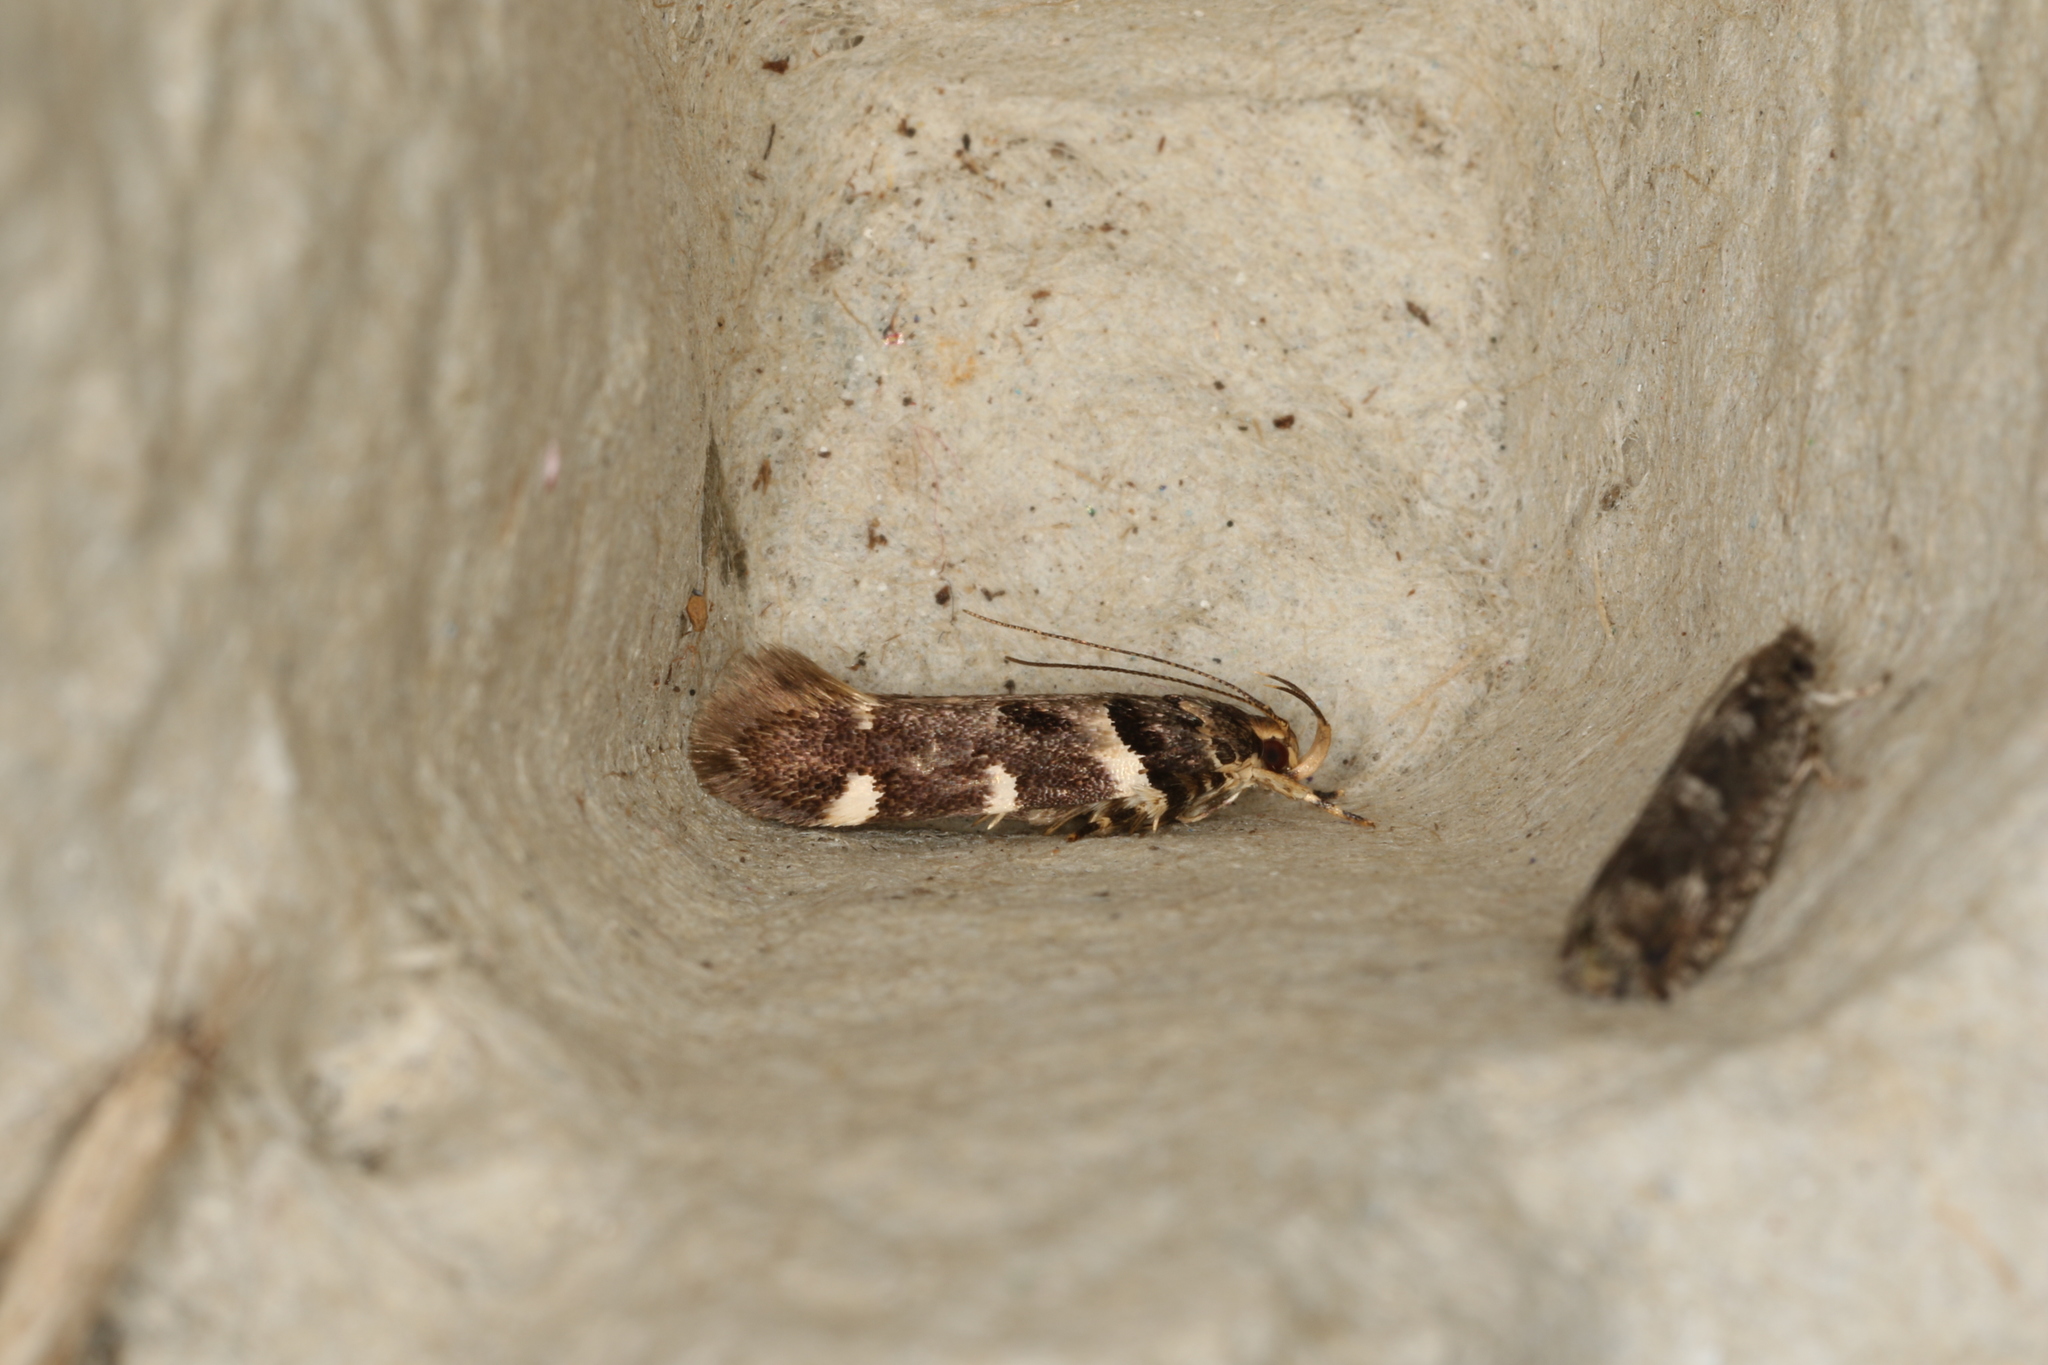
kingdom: Animalia
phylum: Arthropoda
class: Insecta
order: Lepidoptera
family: Cosmopterigidae
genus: Macrobathra
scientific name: Macrobathra ceraunobola
